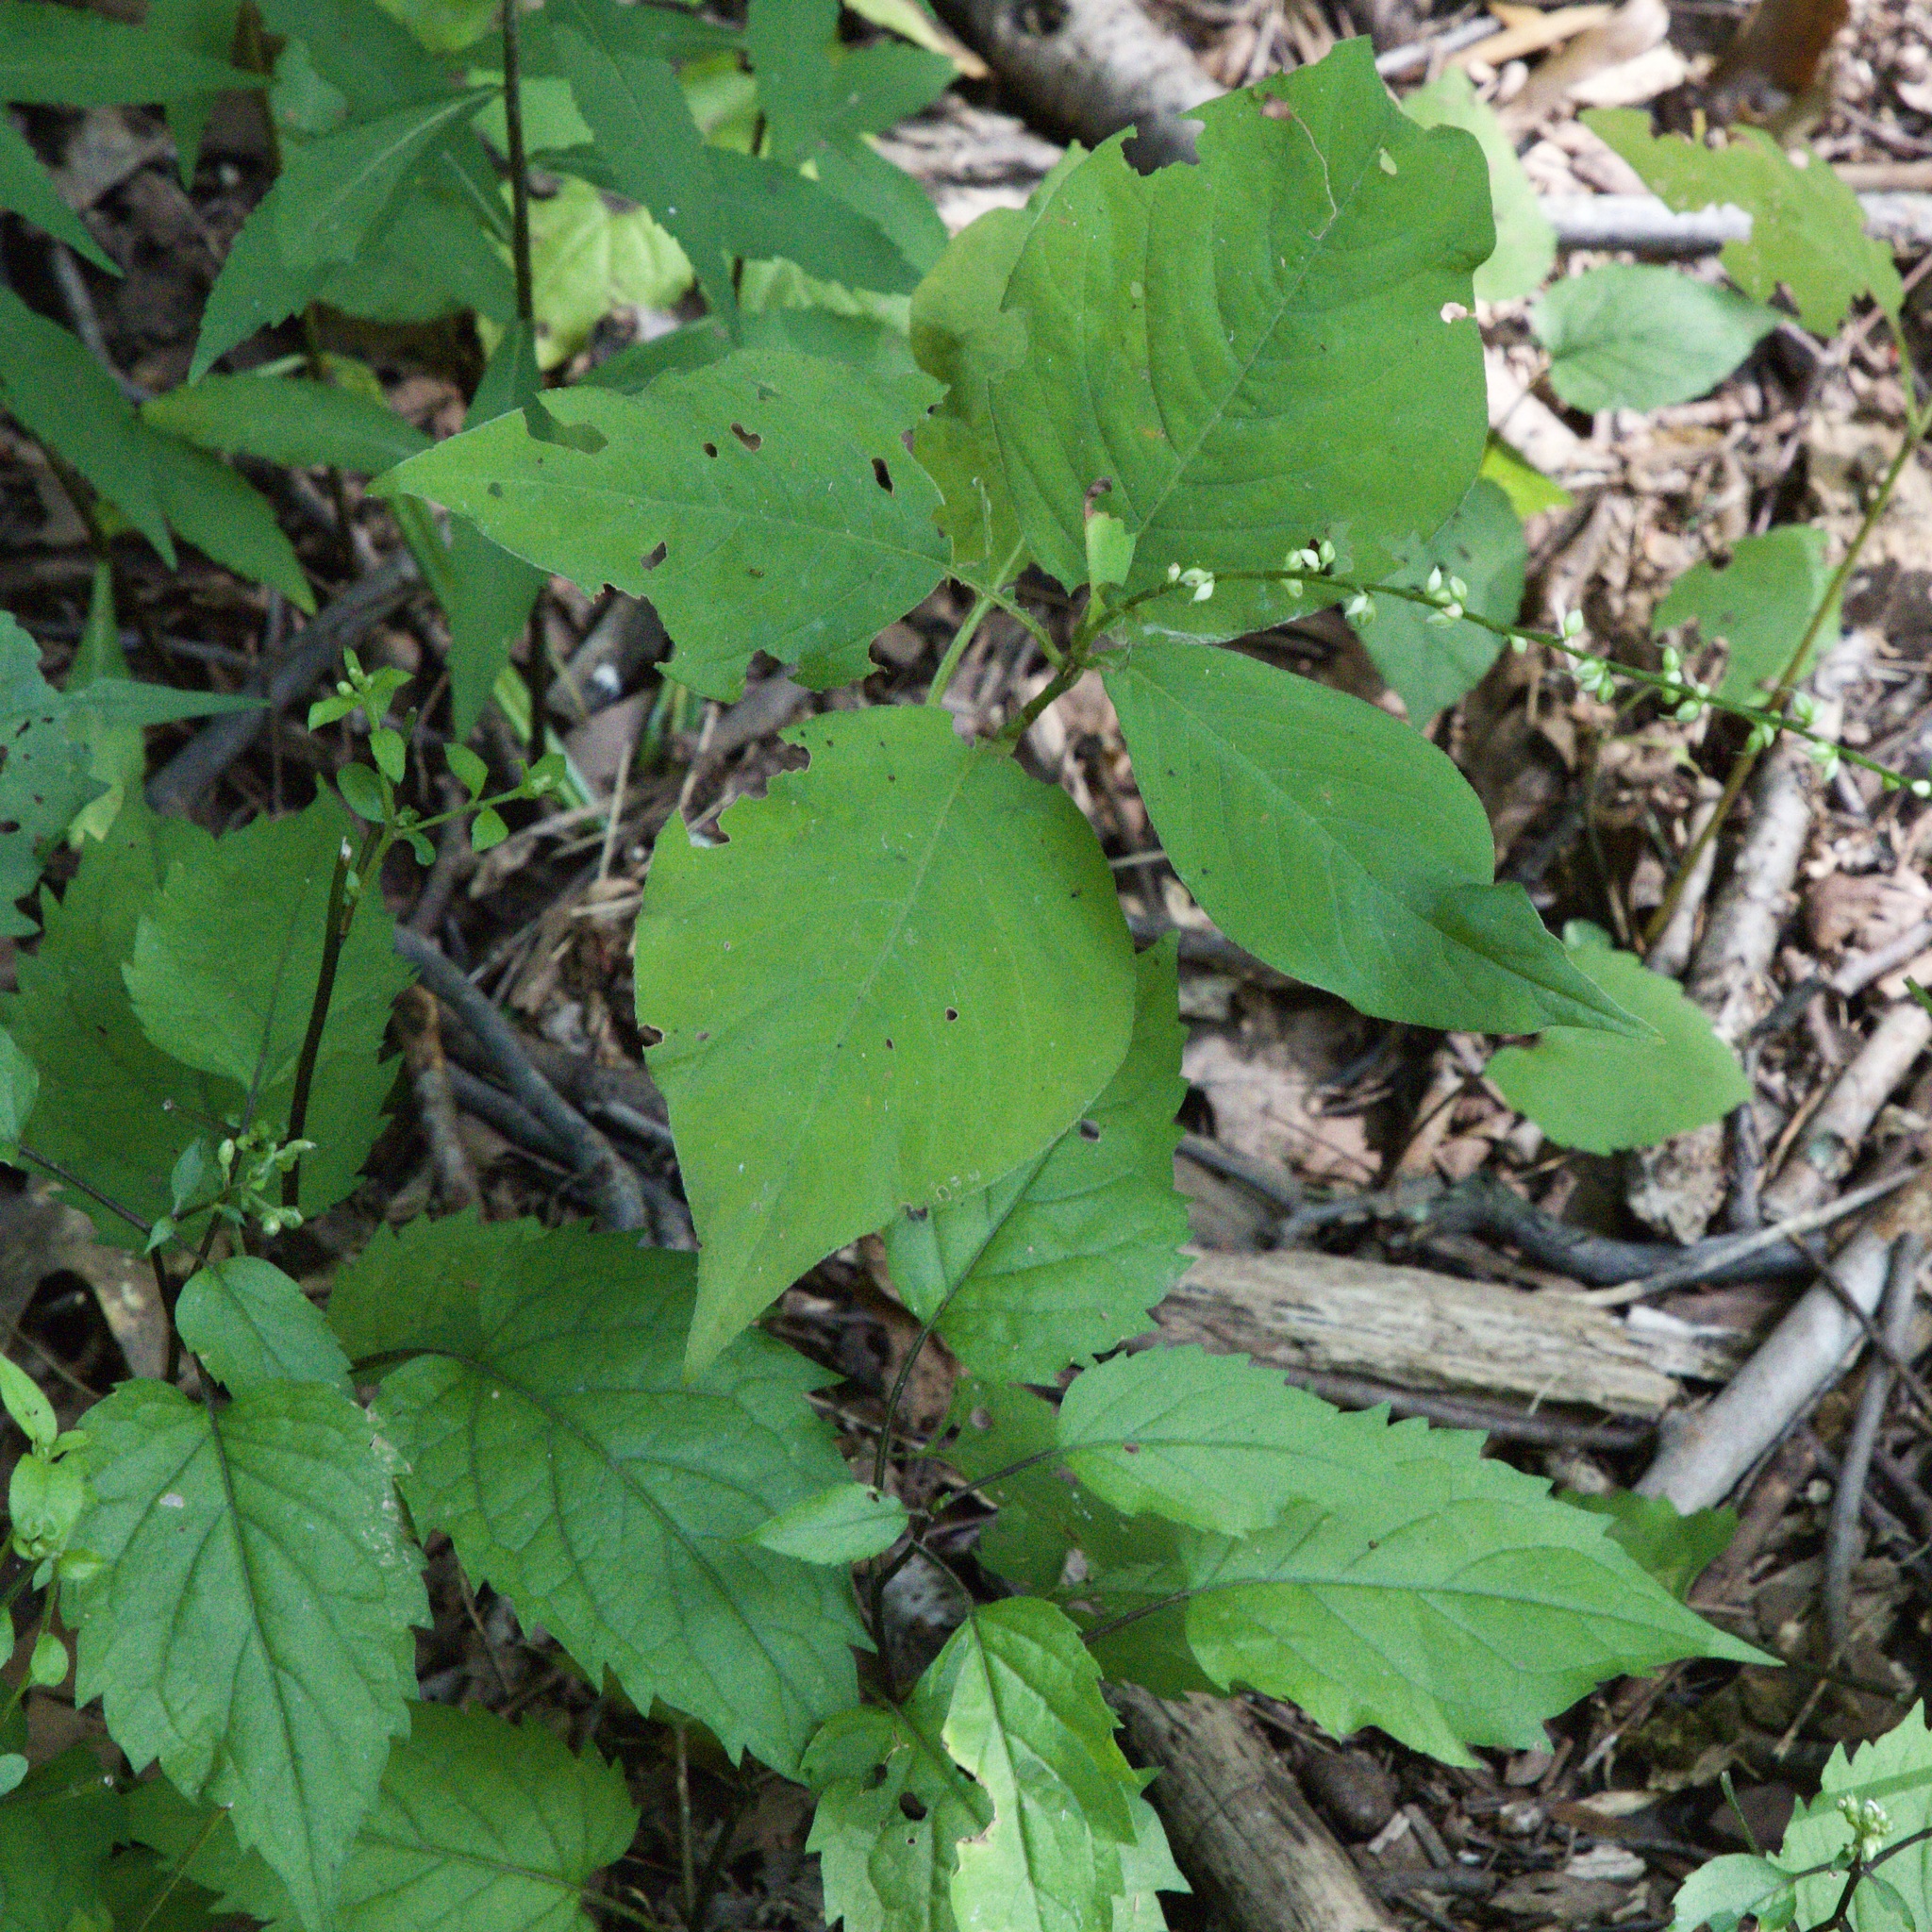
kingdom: Plantae
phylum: Tracheophyta
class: Magnoliopsida
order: Caryophyllales
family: Polygonaceae
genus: Persicaria
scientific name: Persicaria virginiana
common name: Jumpseed
